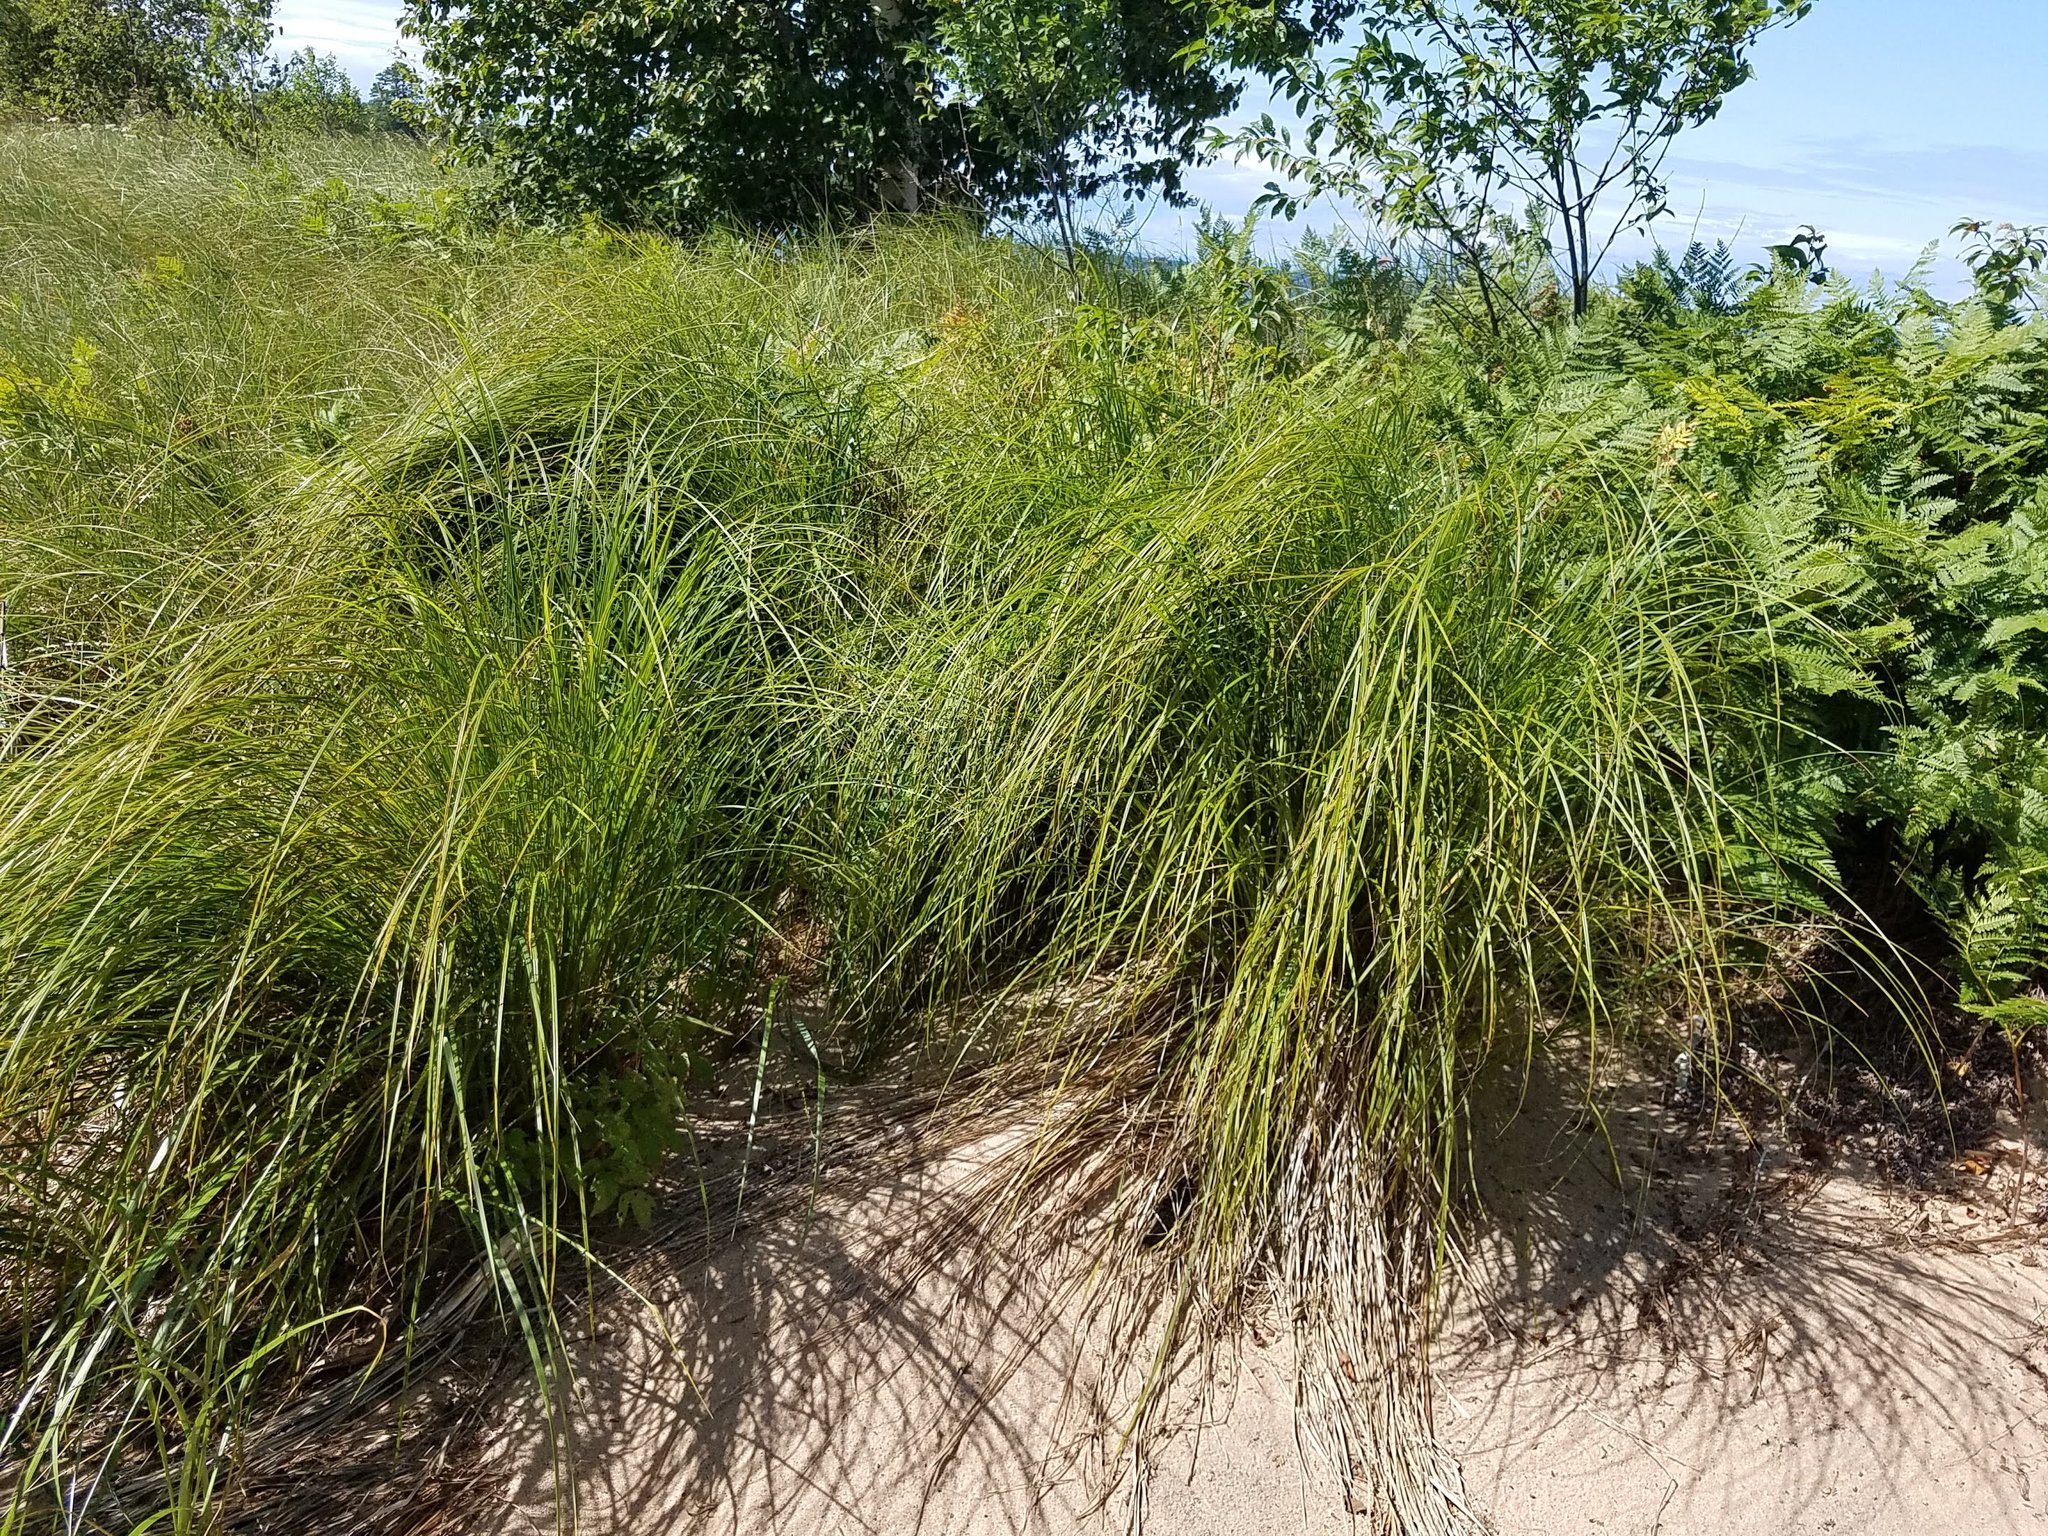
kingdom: Plantae
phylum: Tracheophyta
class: Liliopsida
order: Poales
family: Cyperaceae
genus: Carex
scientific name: Carex stricta
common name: Hummock sedge
